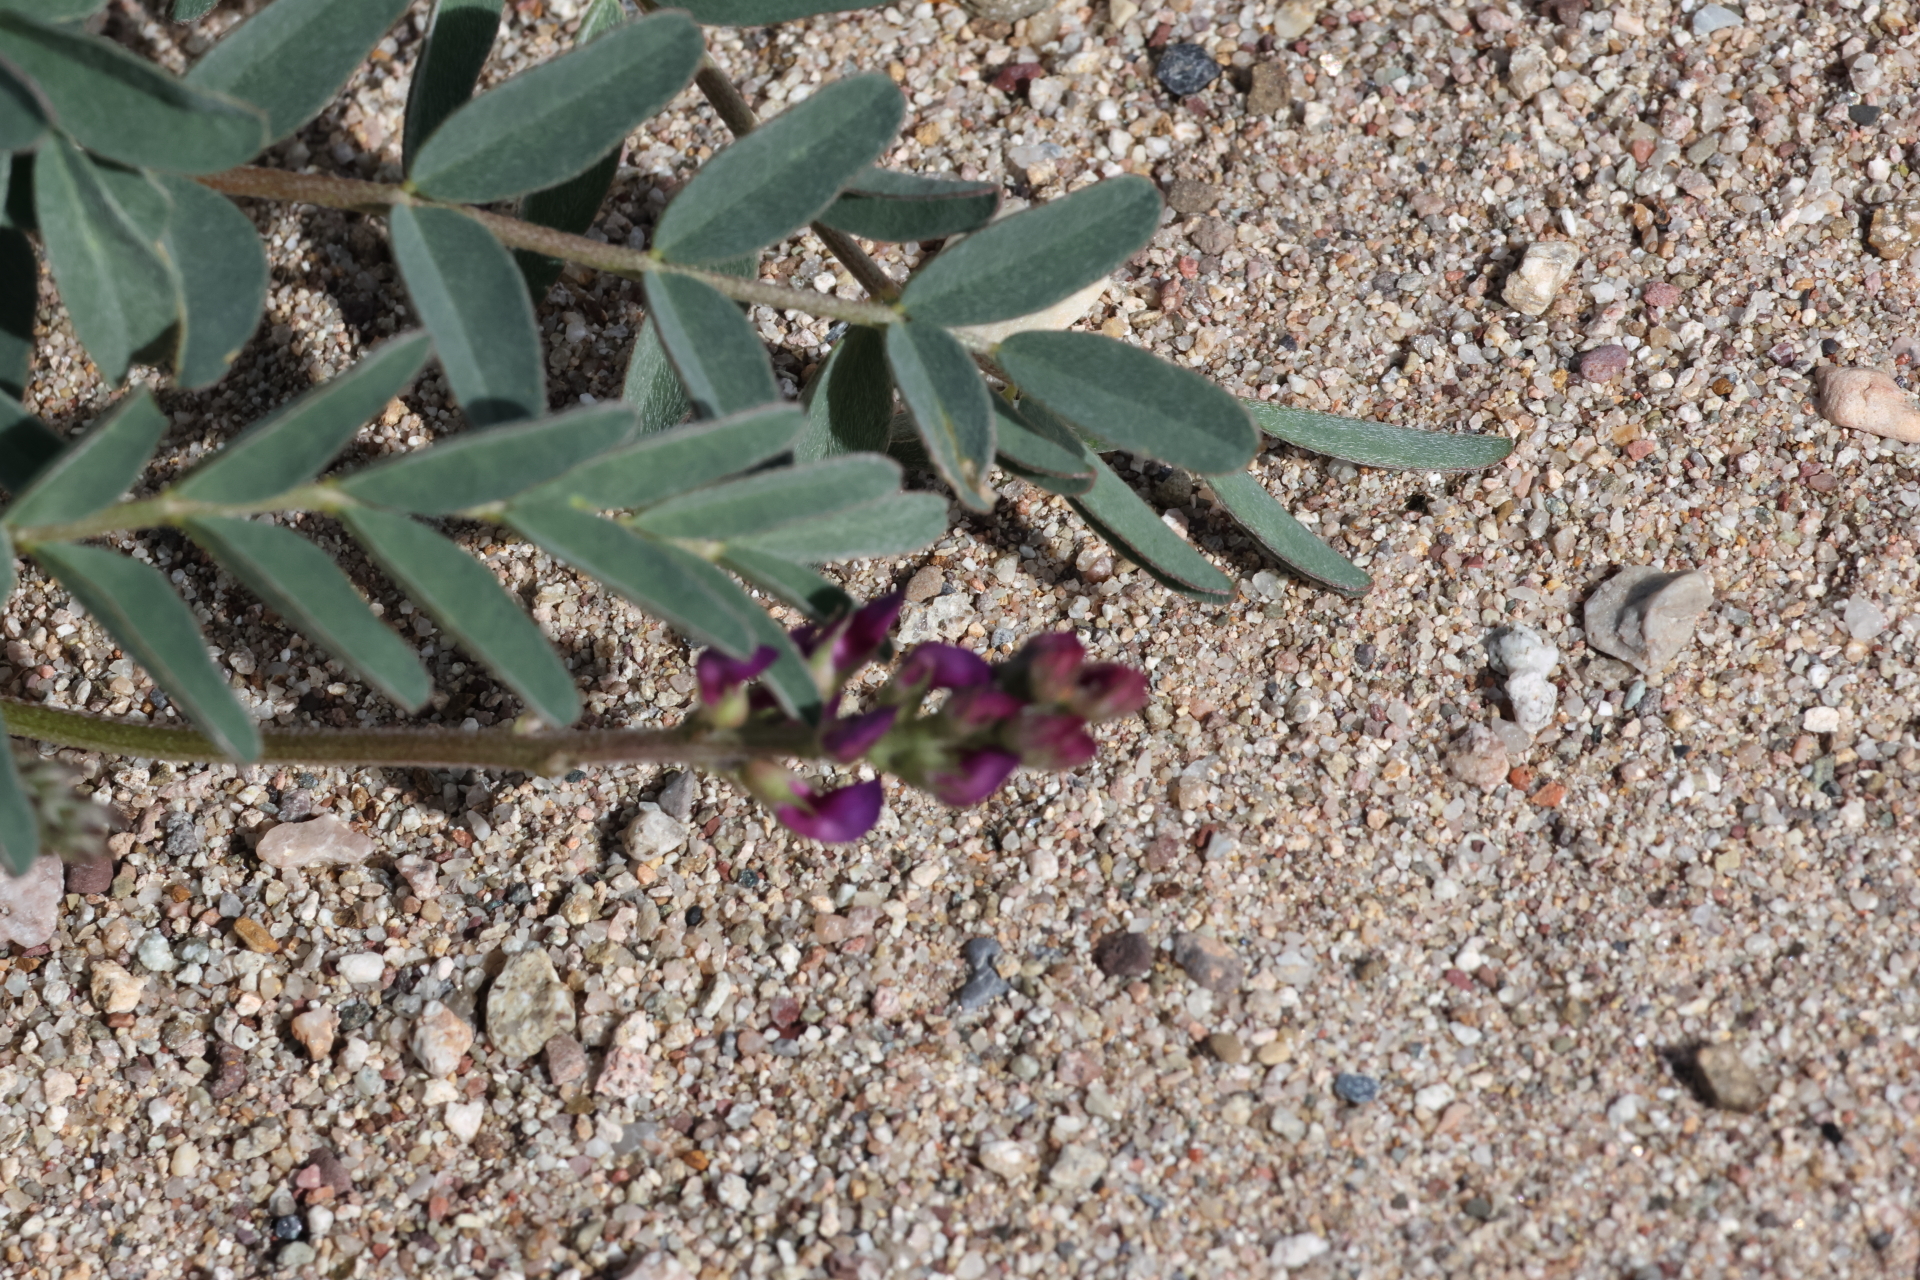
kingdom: Plantae
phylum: Tracheophyta
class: Magnoliopsida
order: Fabales
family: Fabaceae
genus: Astragalus
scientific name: Astragalus allochrous
